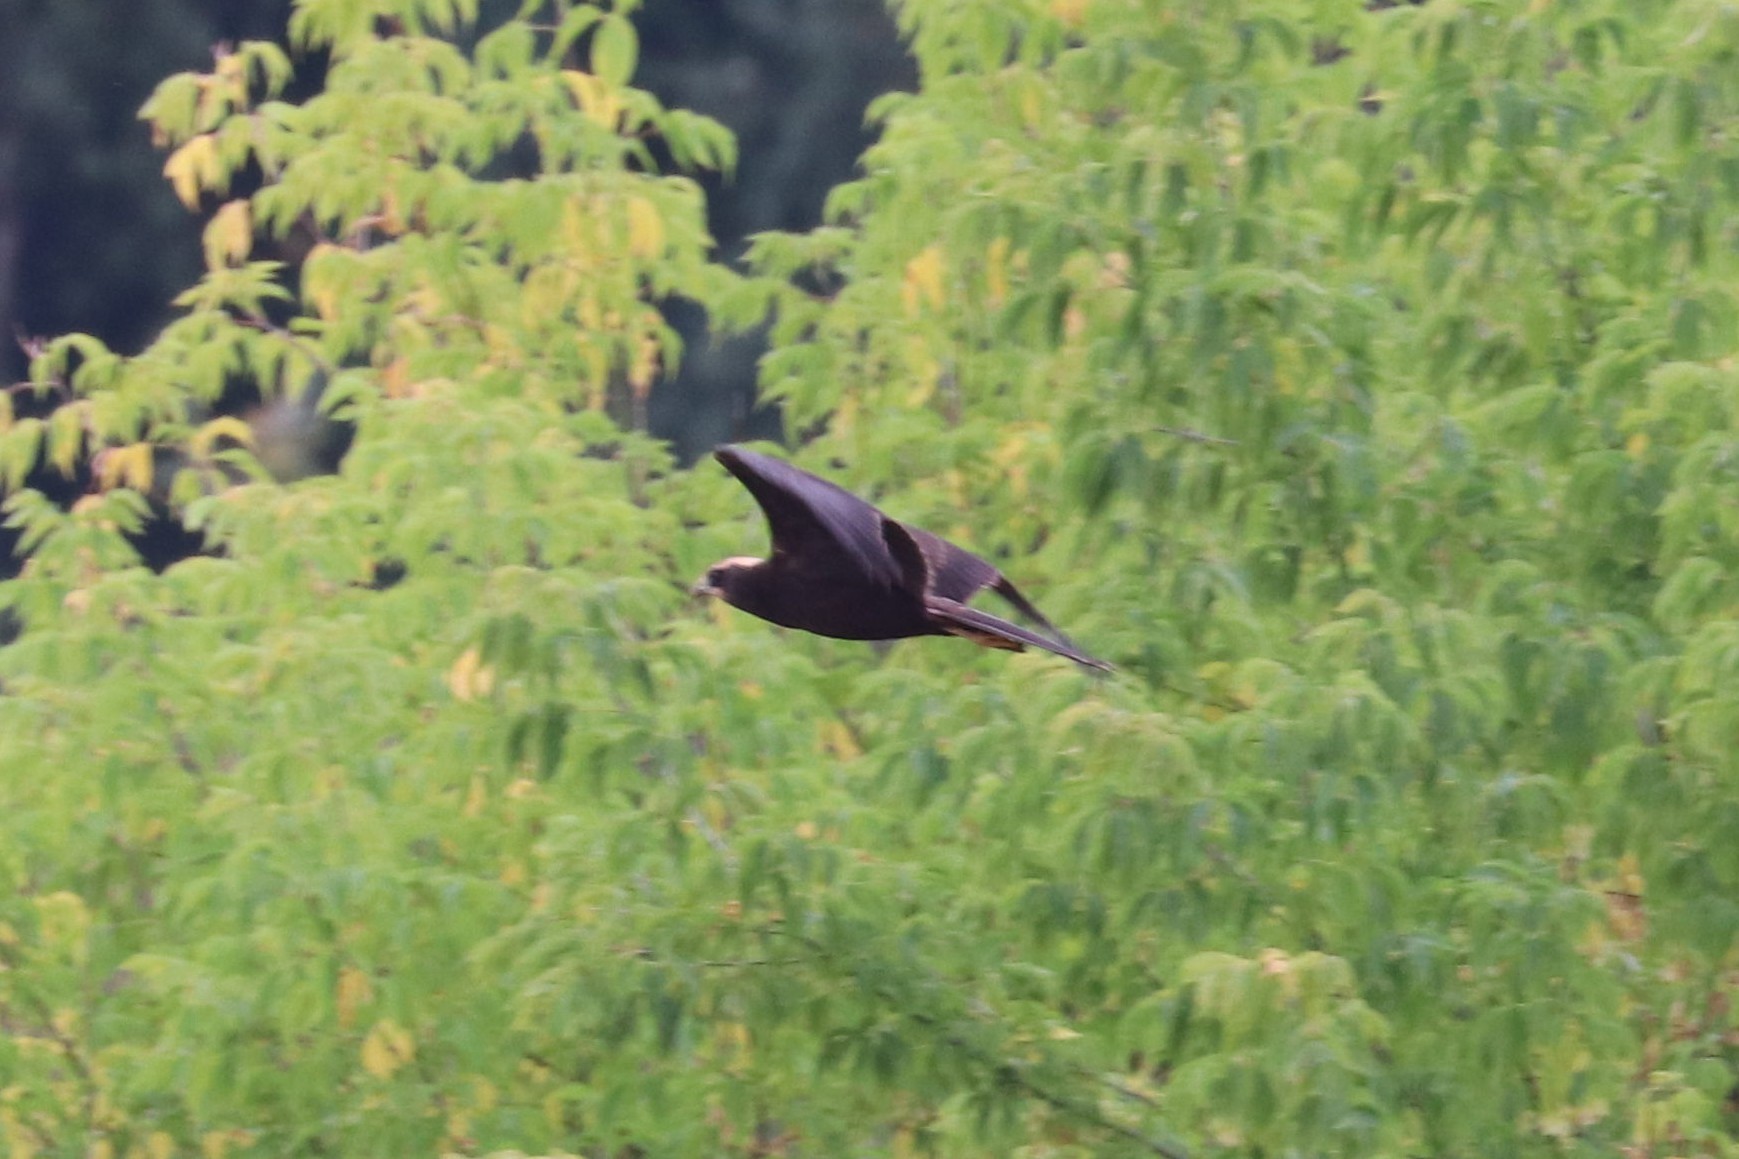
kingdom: Animalia
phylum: Chordata
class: Aves
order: Accipitriformes
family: Accipitridae
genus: Circus
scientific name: Circus aeruginosus
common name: Western marsh harrier
